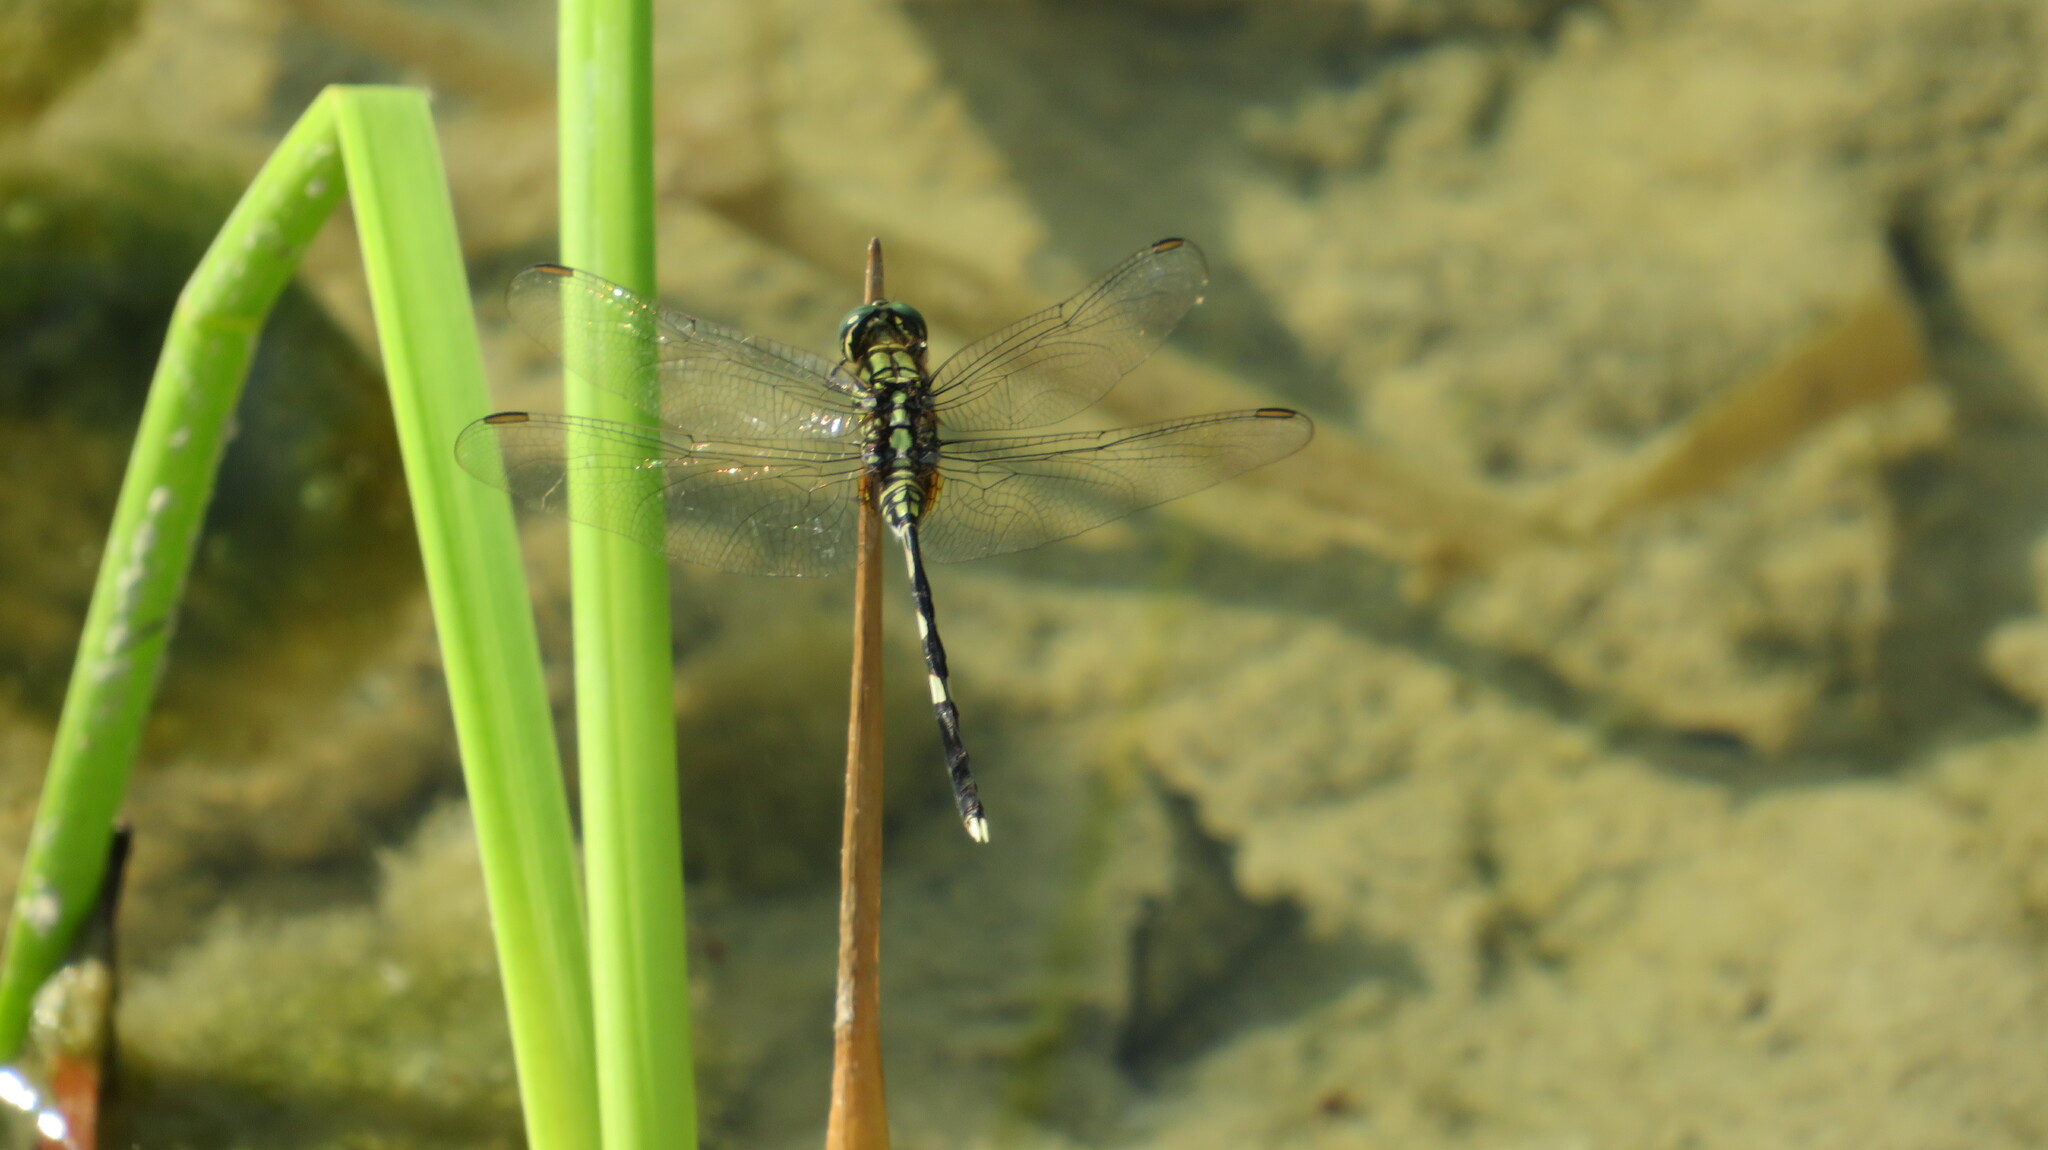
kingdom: Animalia
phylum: Arthropoda
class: Insecta
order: Odonata
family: Libellulidae
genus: Orthetrum
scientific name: Orthetrum sabina
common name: Slender skimmer
